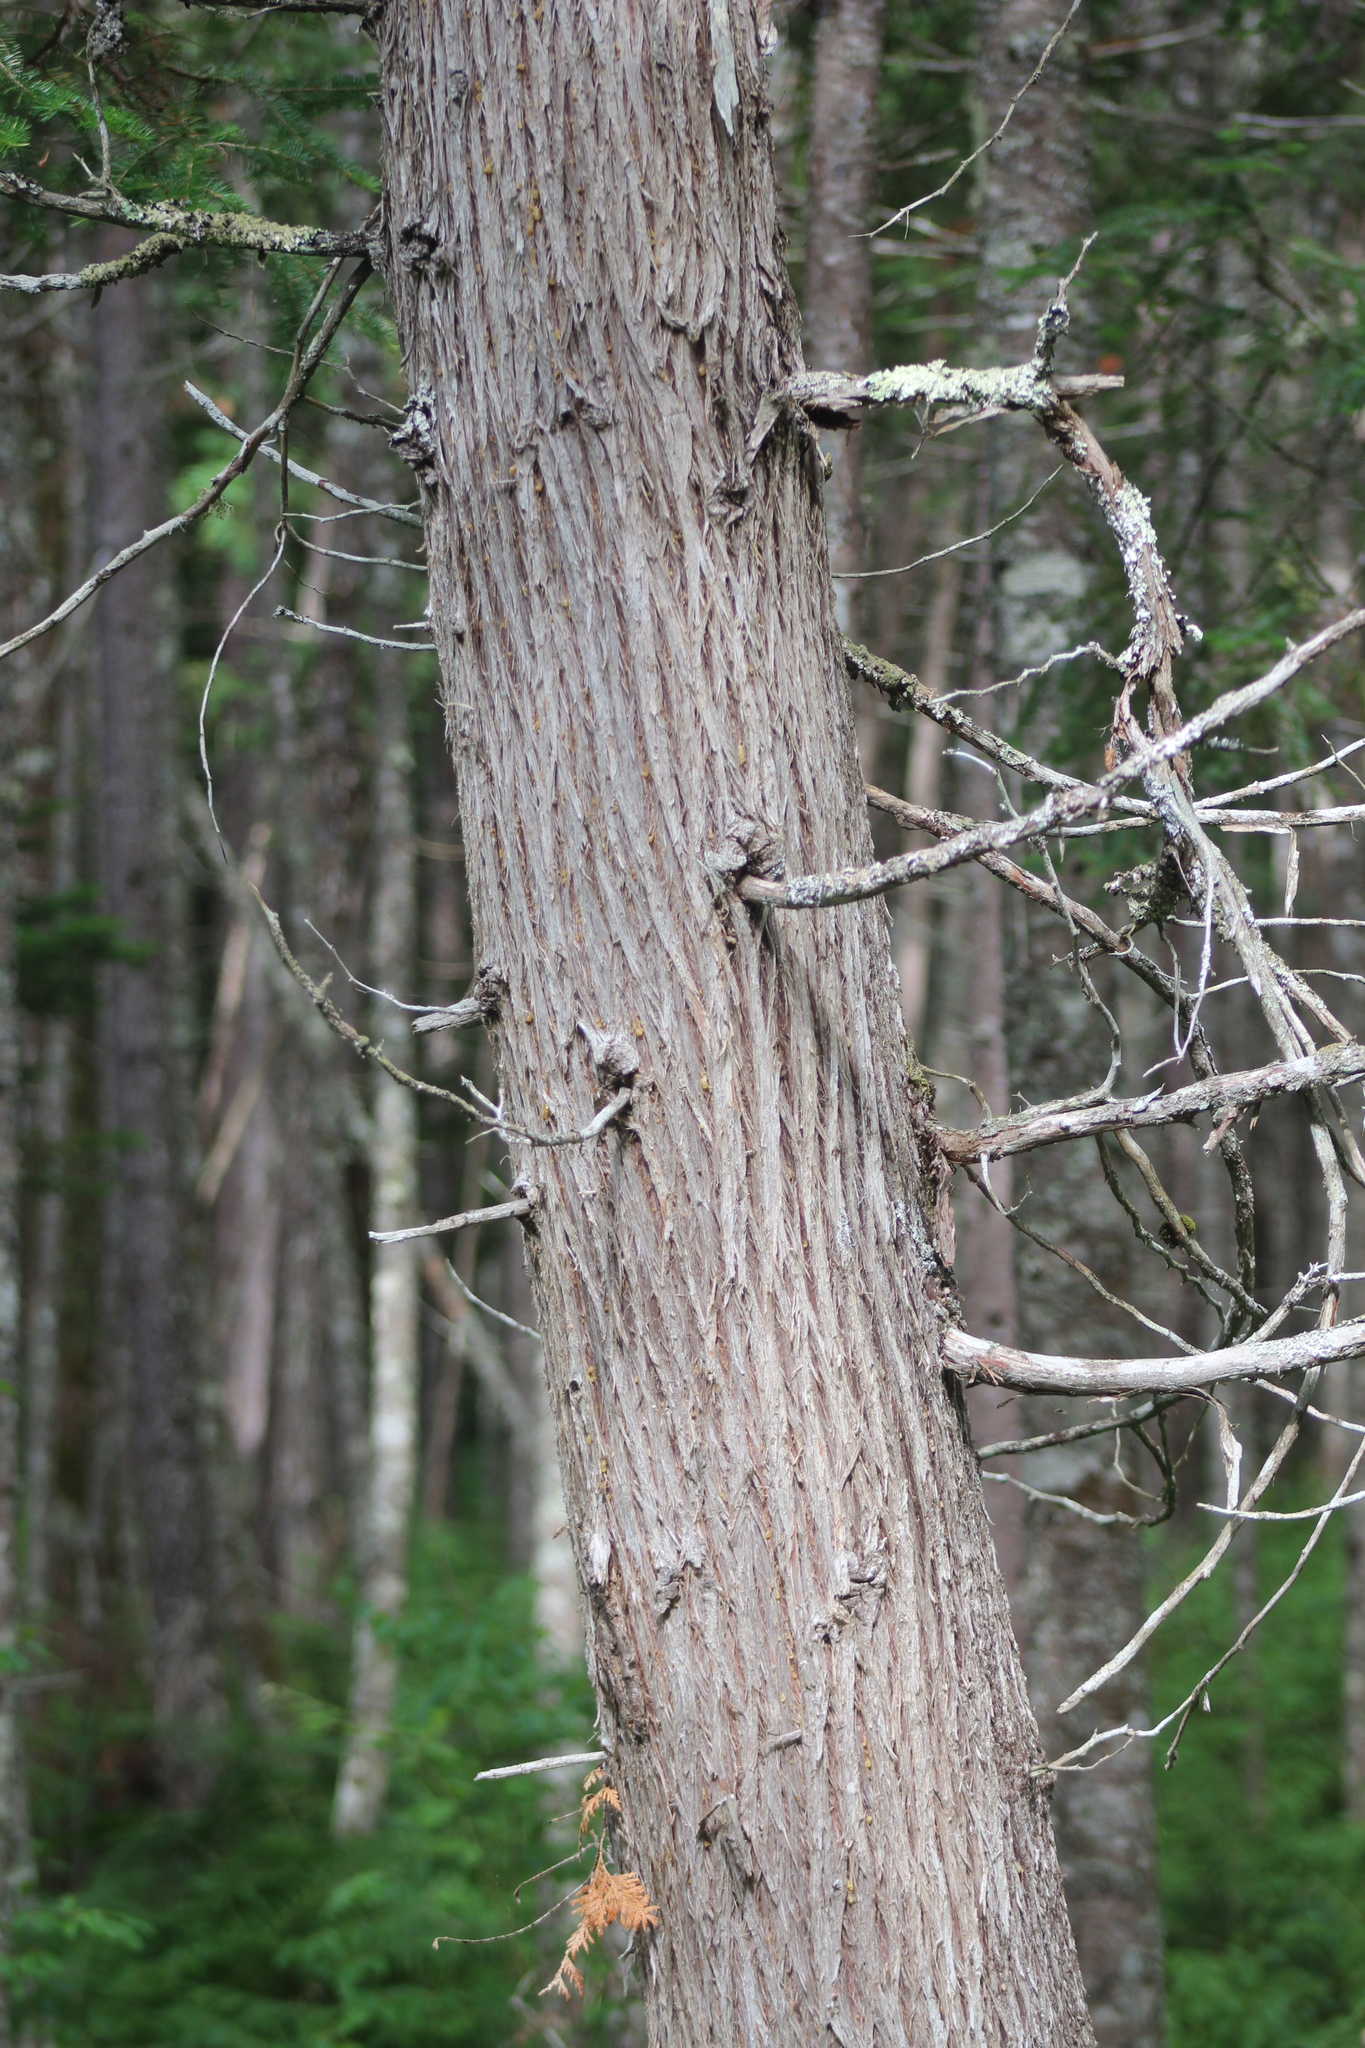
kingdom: Plantae
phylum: Tracheophyta
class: Pinopsida
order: Pinales
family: Cupressaceae
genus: Thuja
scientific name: Thuja occidentalis
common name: Northern white-cedar
